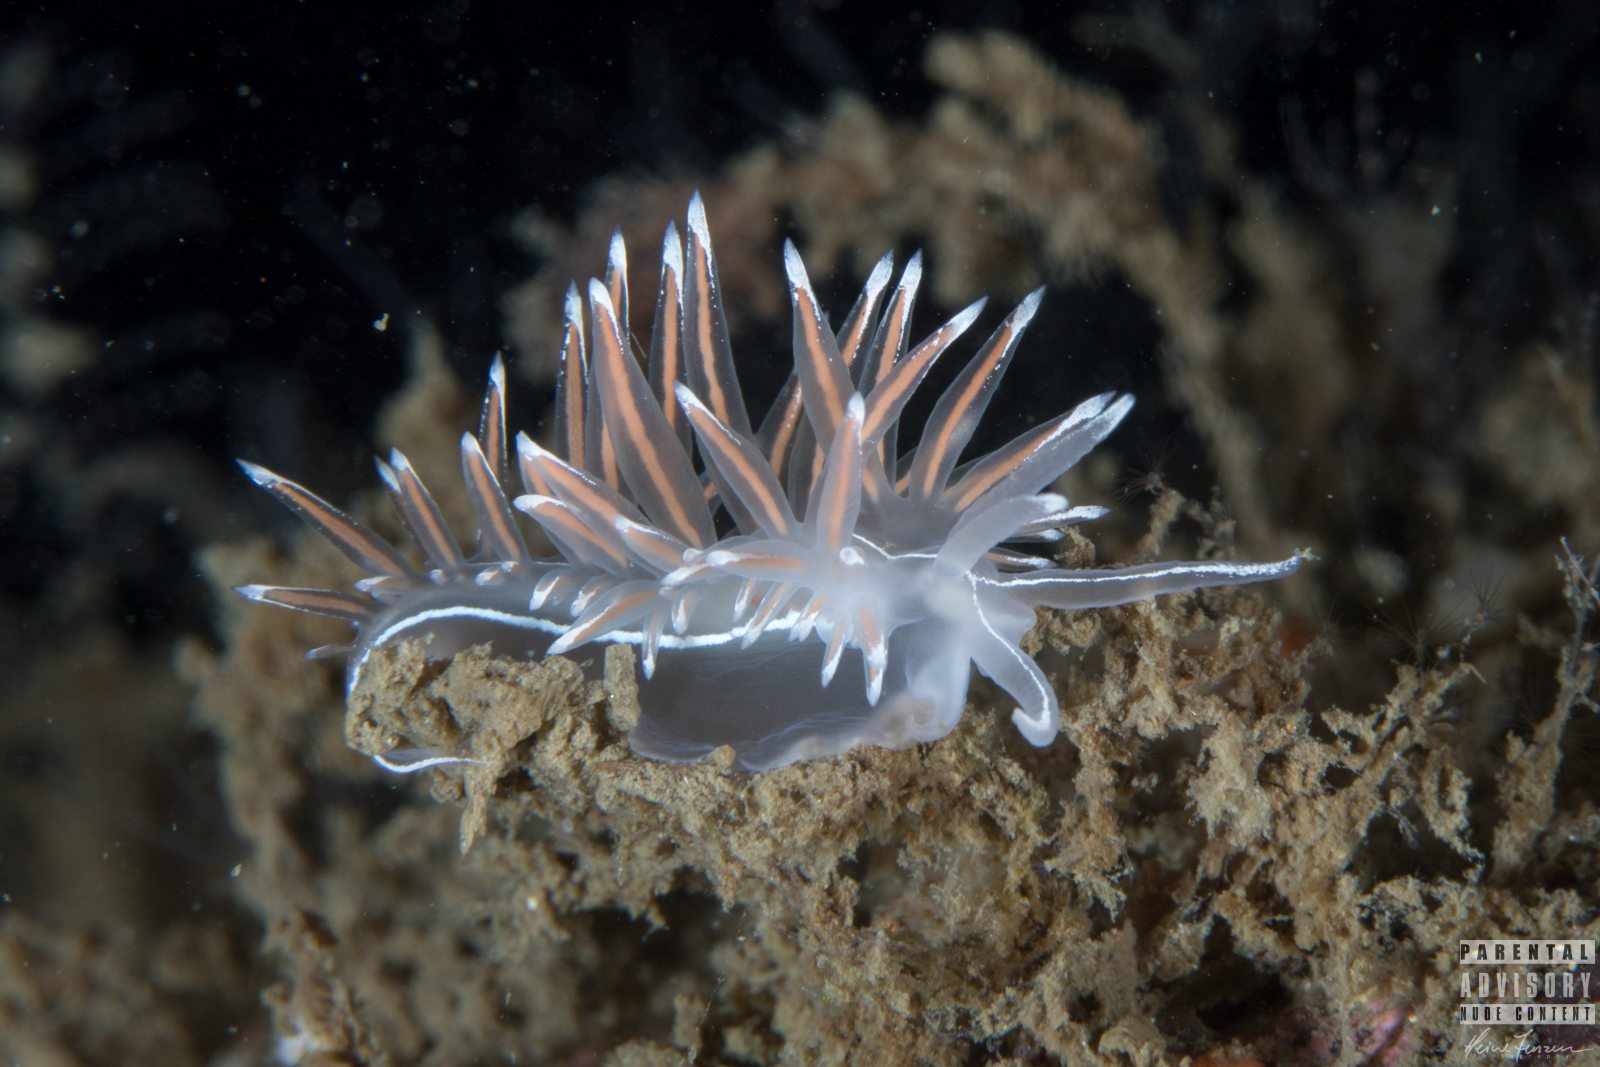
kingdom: Animalia
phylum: Mollusca
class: Gastropoda
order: Nudibranchia
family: Coryphellidae
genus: Coryphella
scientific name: Coryphella lineata
